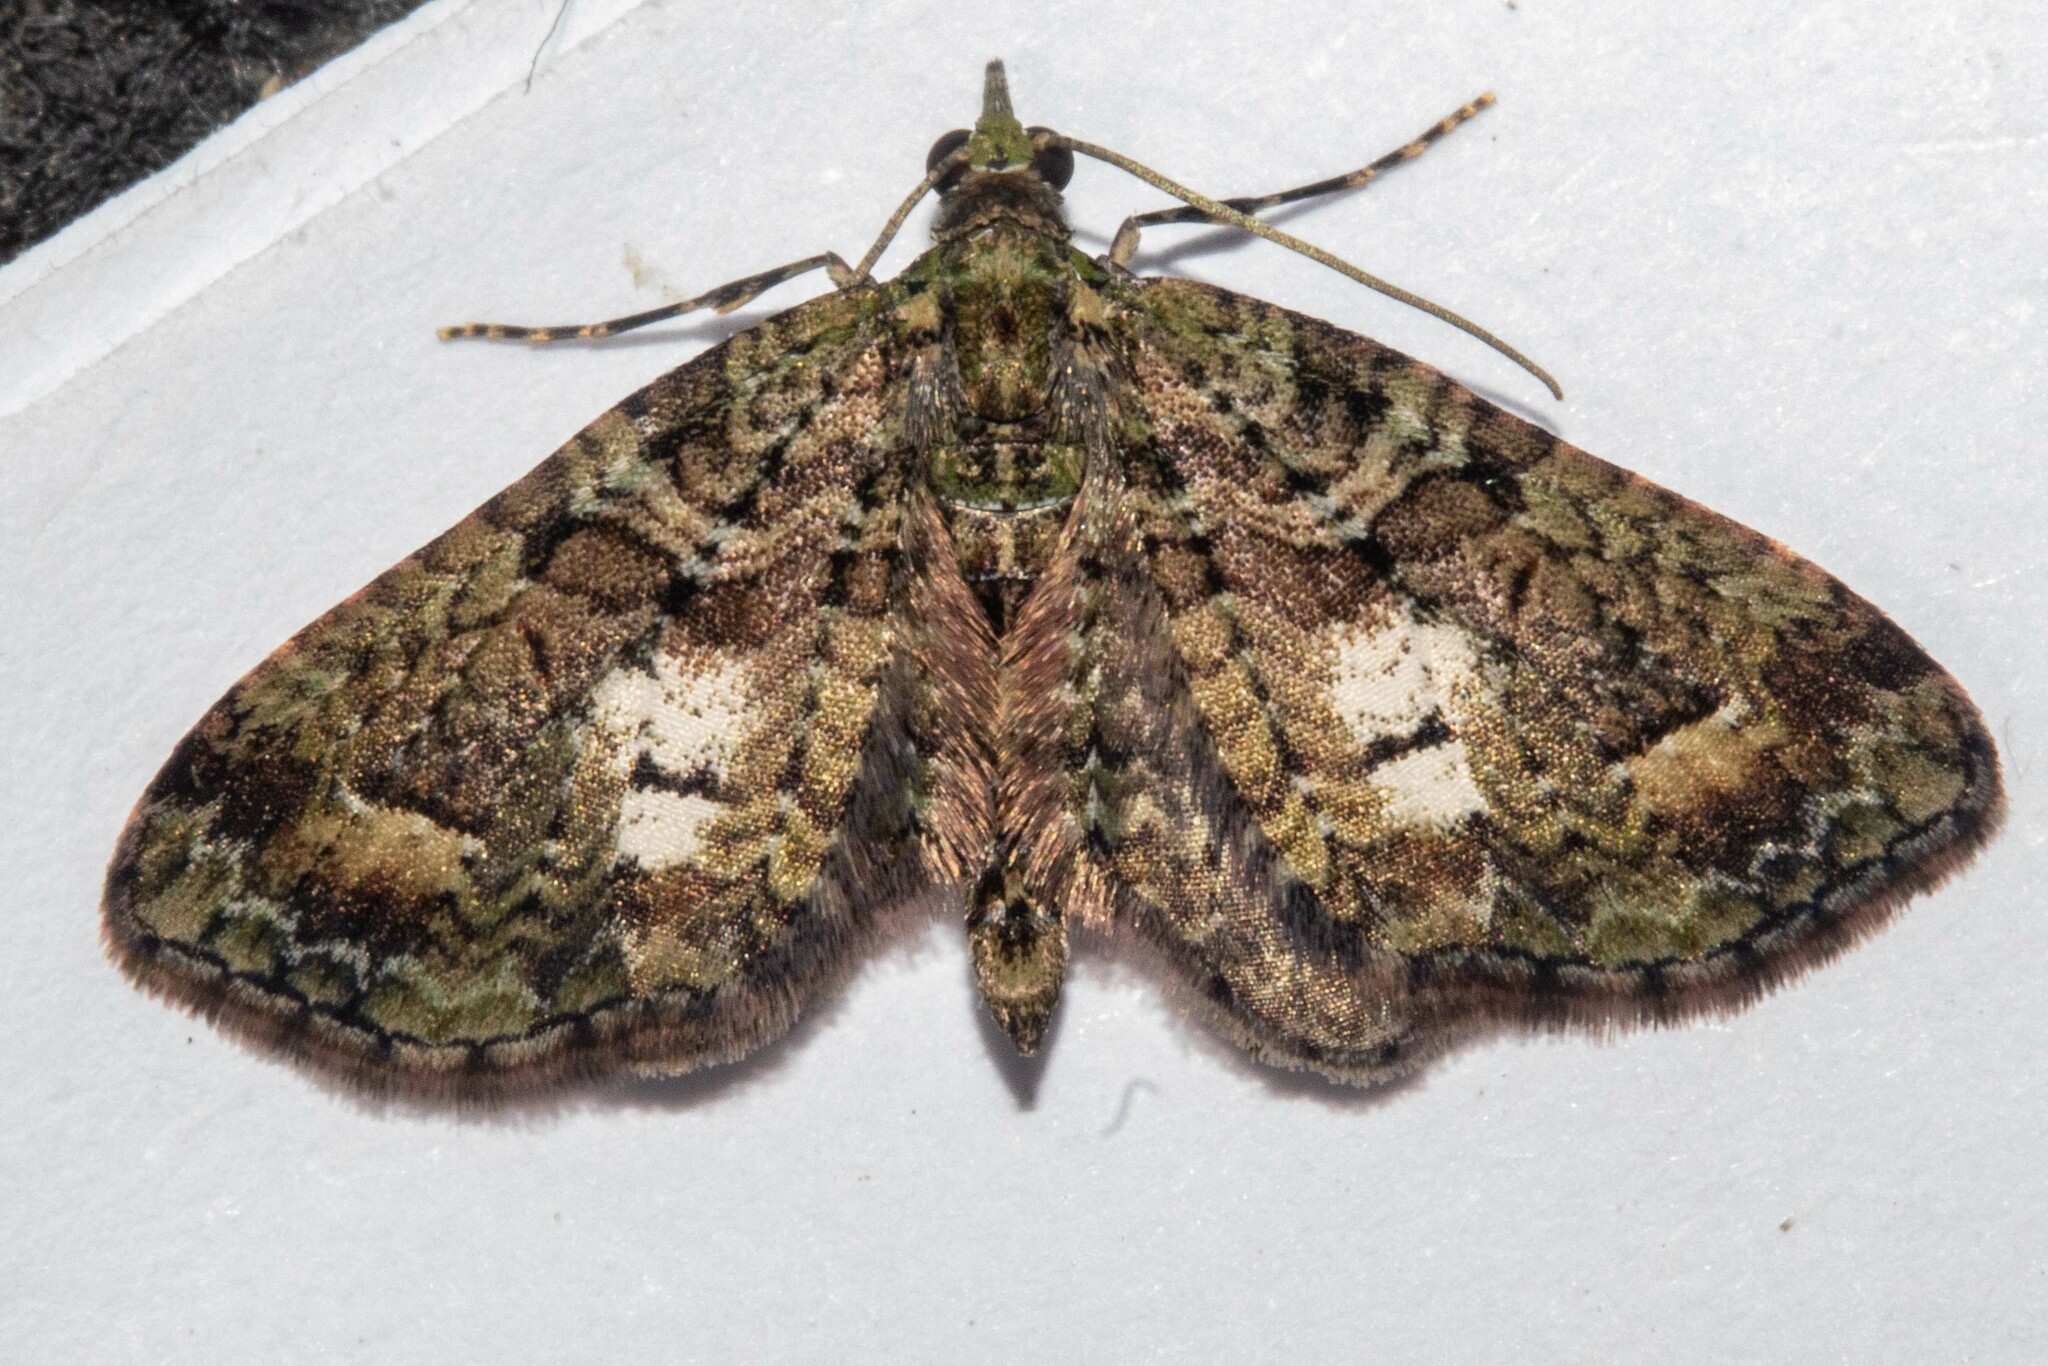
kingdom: Animalia
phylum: Arthropoda
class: Insecta
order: Lepidoptera
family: Geometridae
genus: Idaea
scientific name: Idaea mutanda
